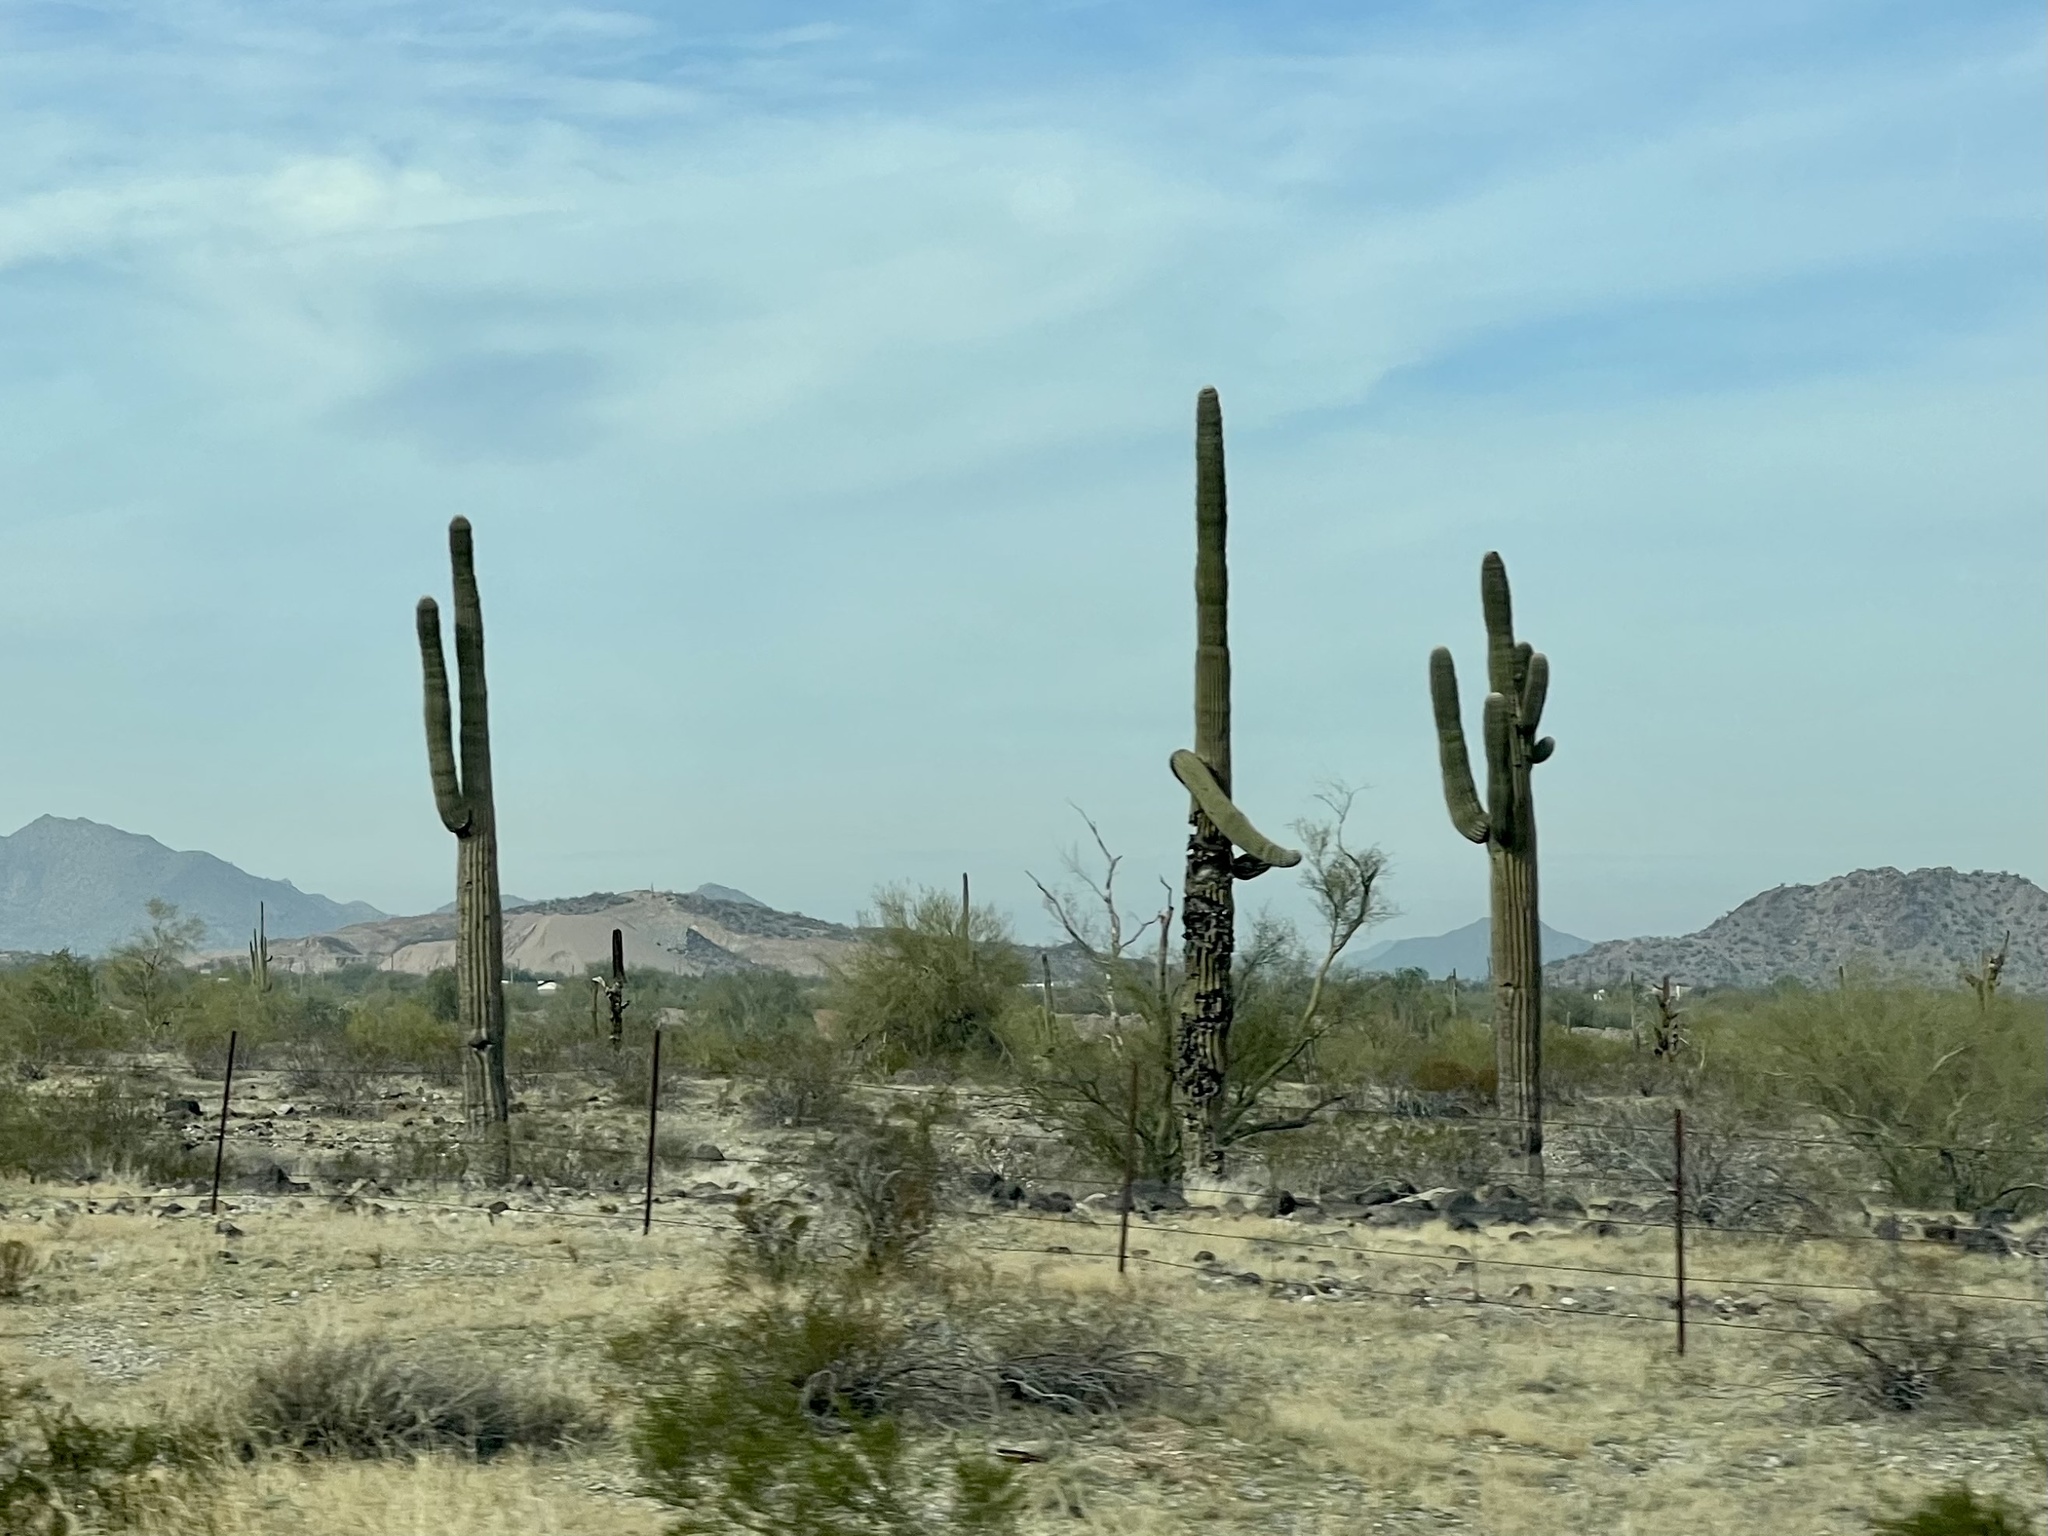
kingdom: Plantae
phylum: Tracheophyta
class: Magnoliopsida
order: Caryophyllales
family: Cactaceae
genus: Carnegiea
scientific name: Carnegiea gigantea
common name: Saguaro
